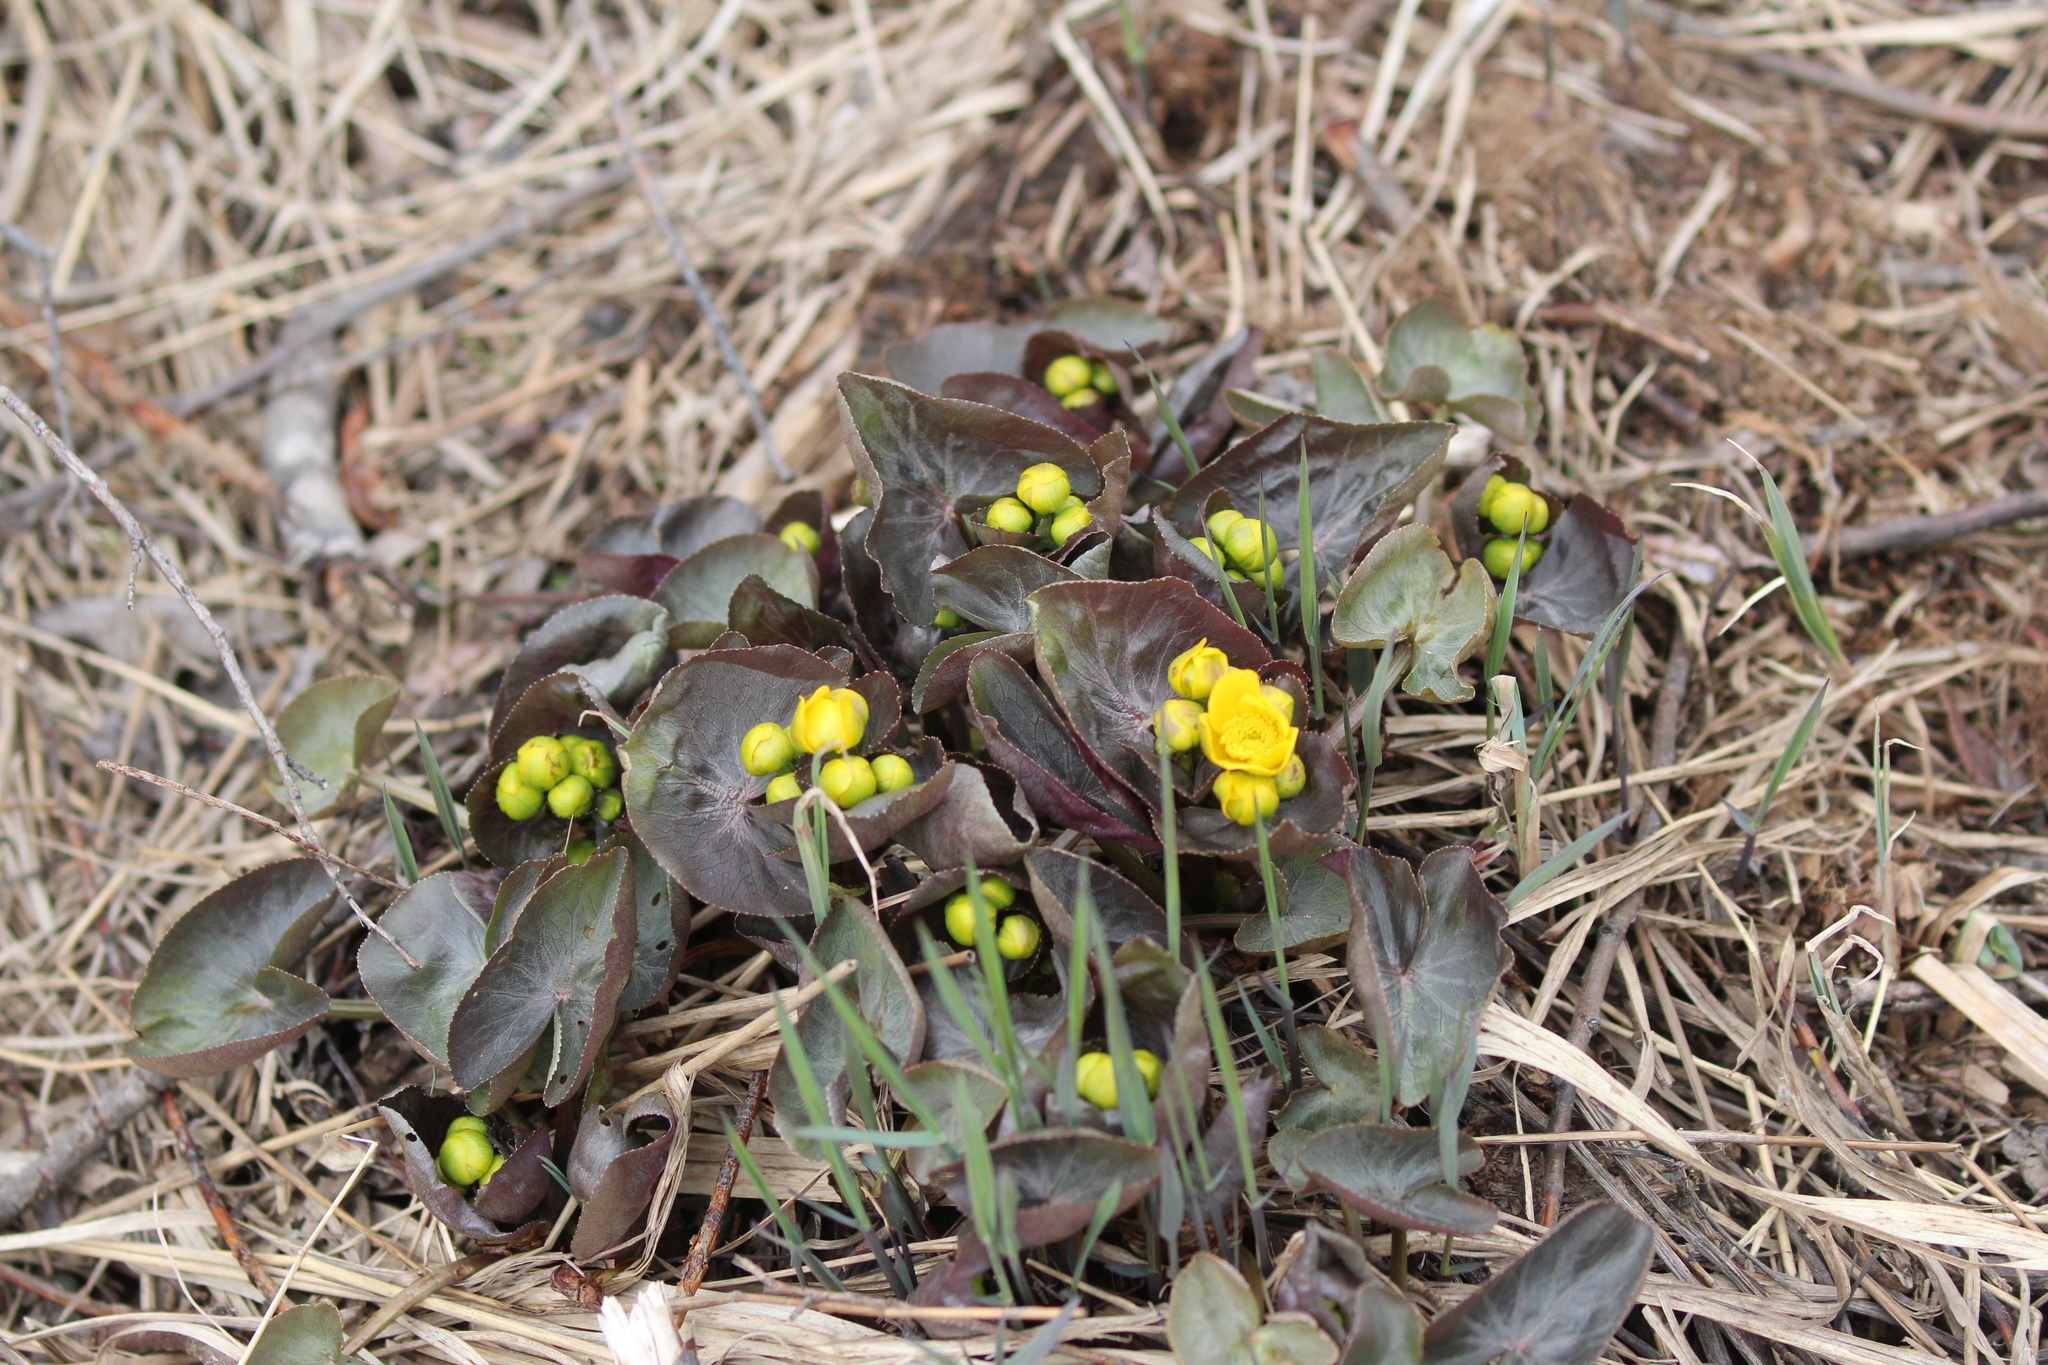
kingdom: Plantae
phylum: Tracheophyta
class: Magnoliopsida
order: Ranunculales
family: Ranunculaceae
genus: Caltha
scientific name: Caltha palustris
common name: Marsh marigold
